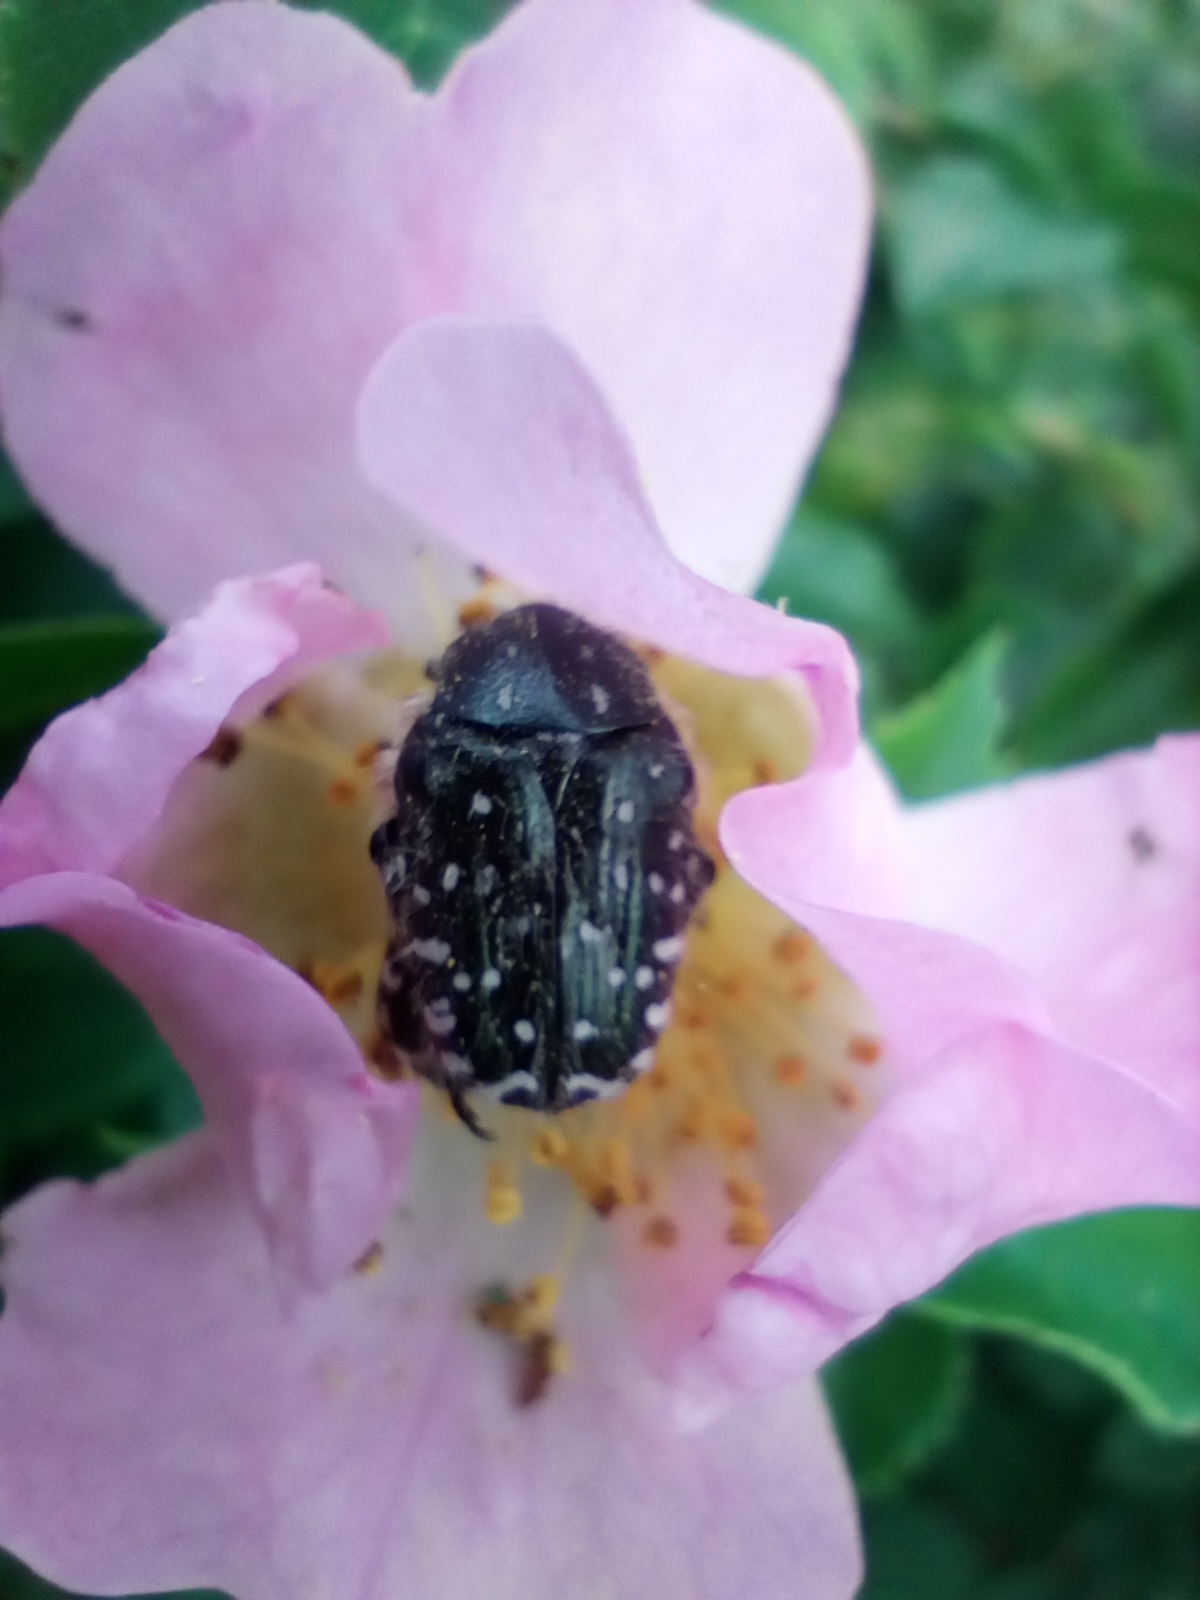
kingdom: Animalia
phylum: Arthropoda
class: Insecta
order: Coleoptera
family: Scarabaeidae
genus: Oxythyrea
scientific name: Oxythyrea funesta
